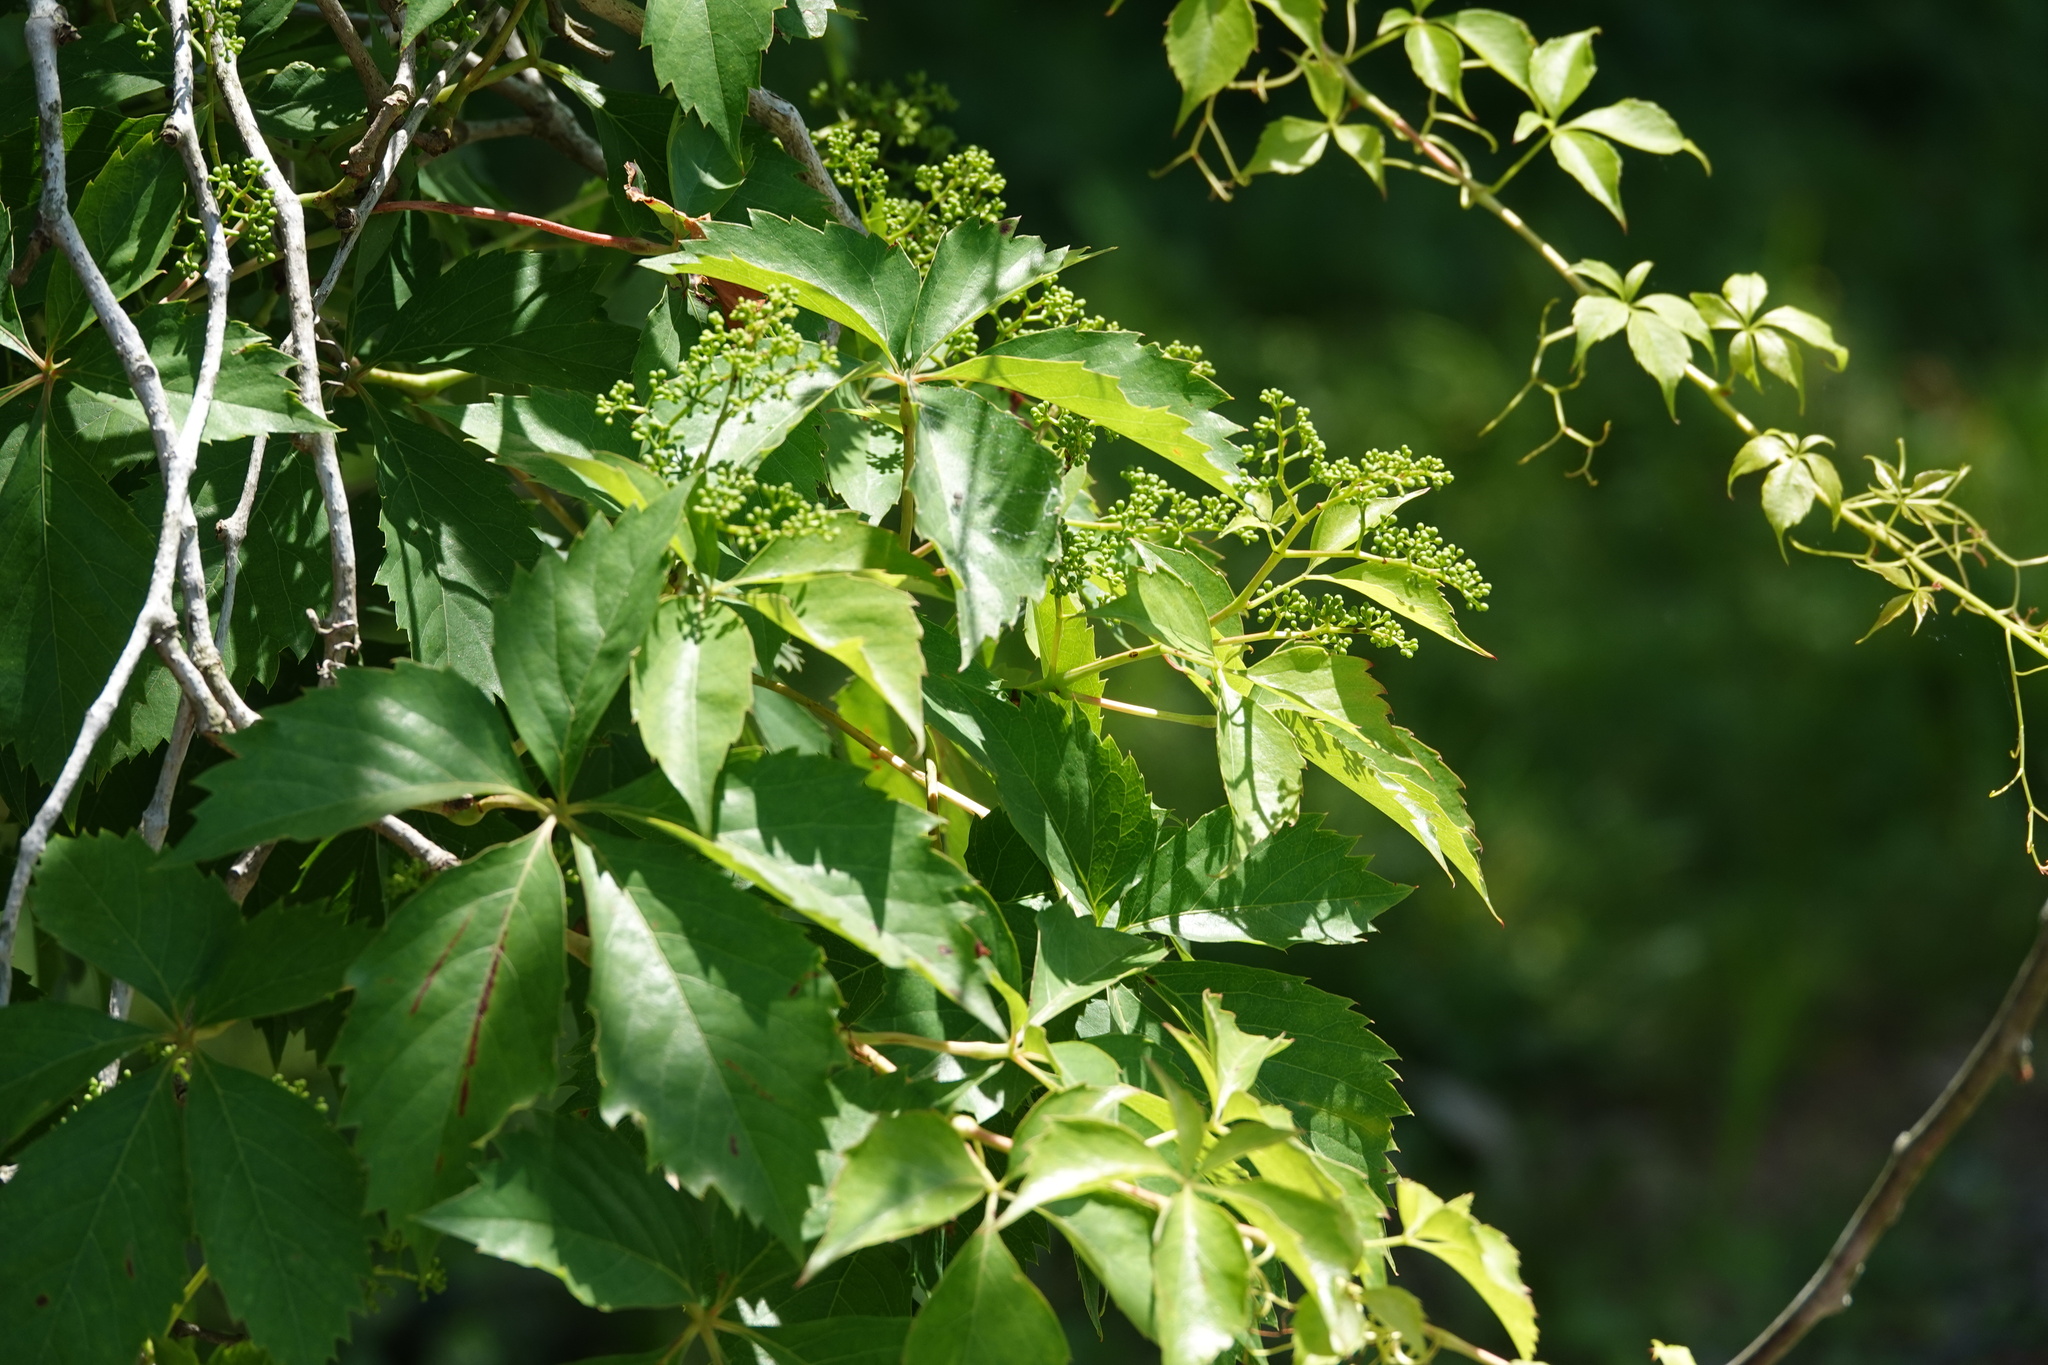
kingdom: Plantae
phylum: Tracheophyta
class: Magnoliopsida
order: Vitales
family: Vitaceae
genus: Parthenocissus
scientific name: Parthenocissus quinquefolia
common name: Virginia-creeper
